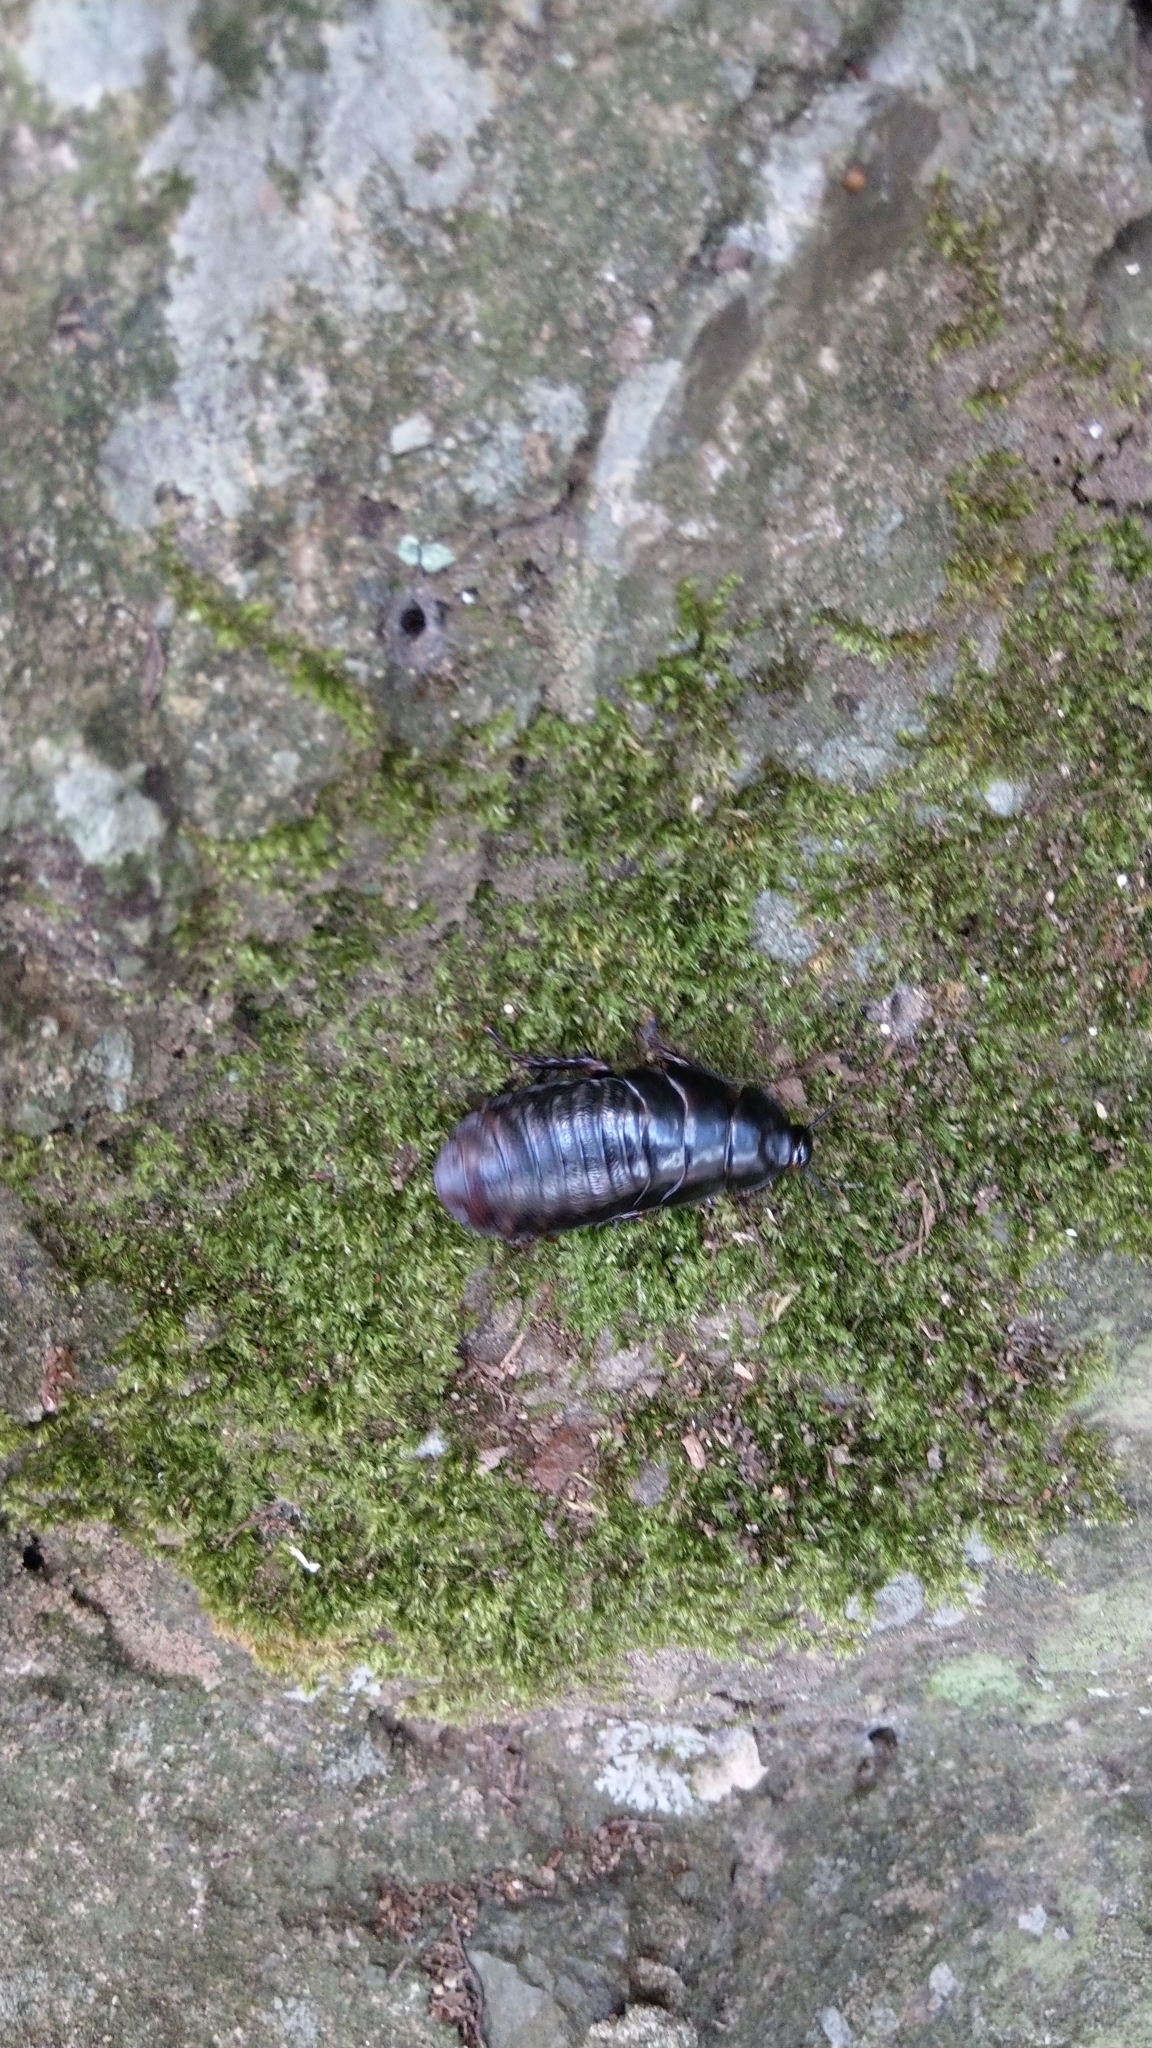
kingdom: Animalia
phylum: Arthropoda
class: Insecta
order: Blattodea
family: Blaberidae
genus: Panesthia
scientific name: Panesthia angustipennis
